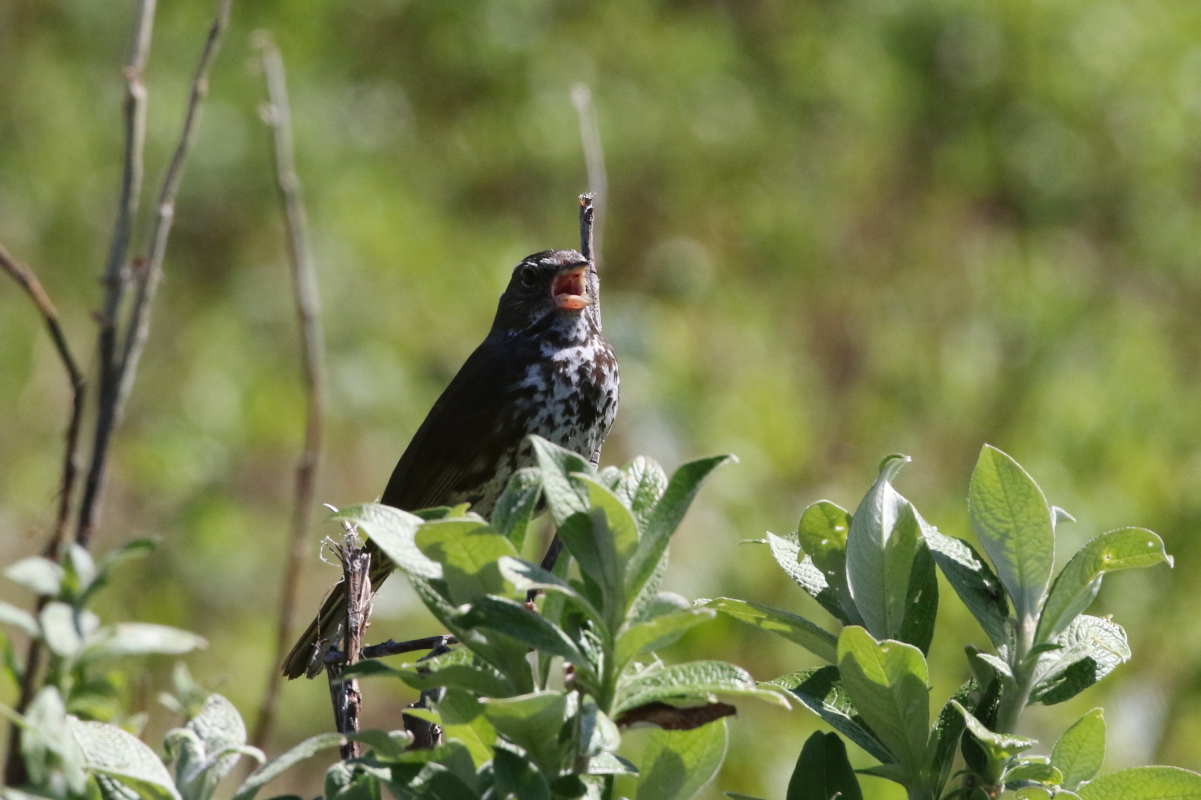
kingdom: Animalia
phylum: Chordata
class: Aves
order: Passeriformes
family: Passerellidae
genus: Passerella
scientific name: Passerella iliaca
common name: Fox sparrow
